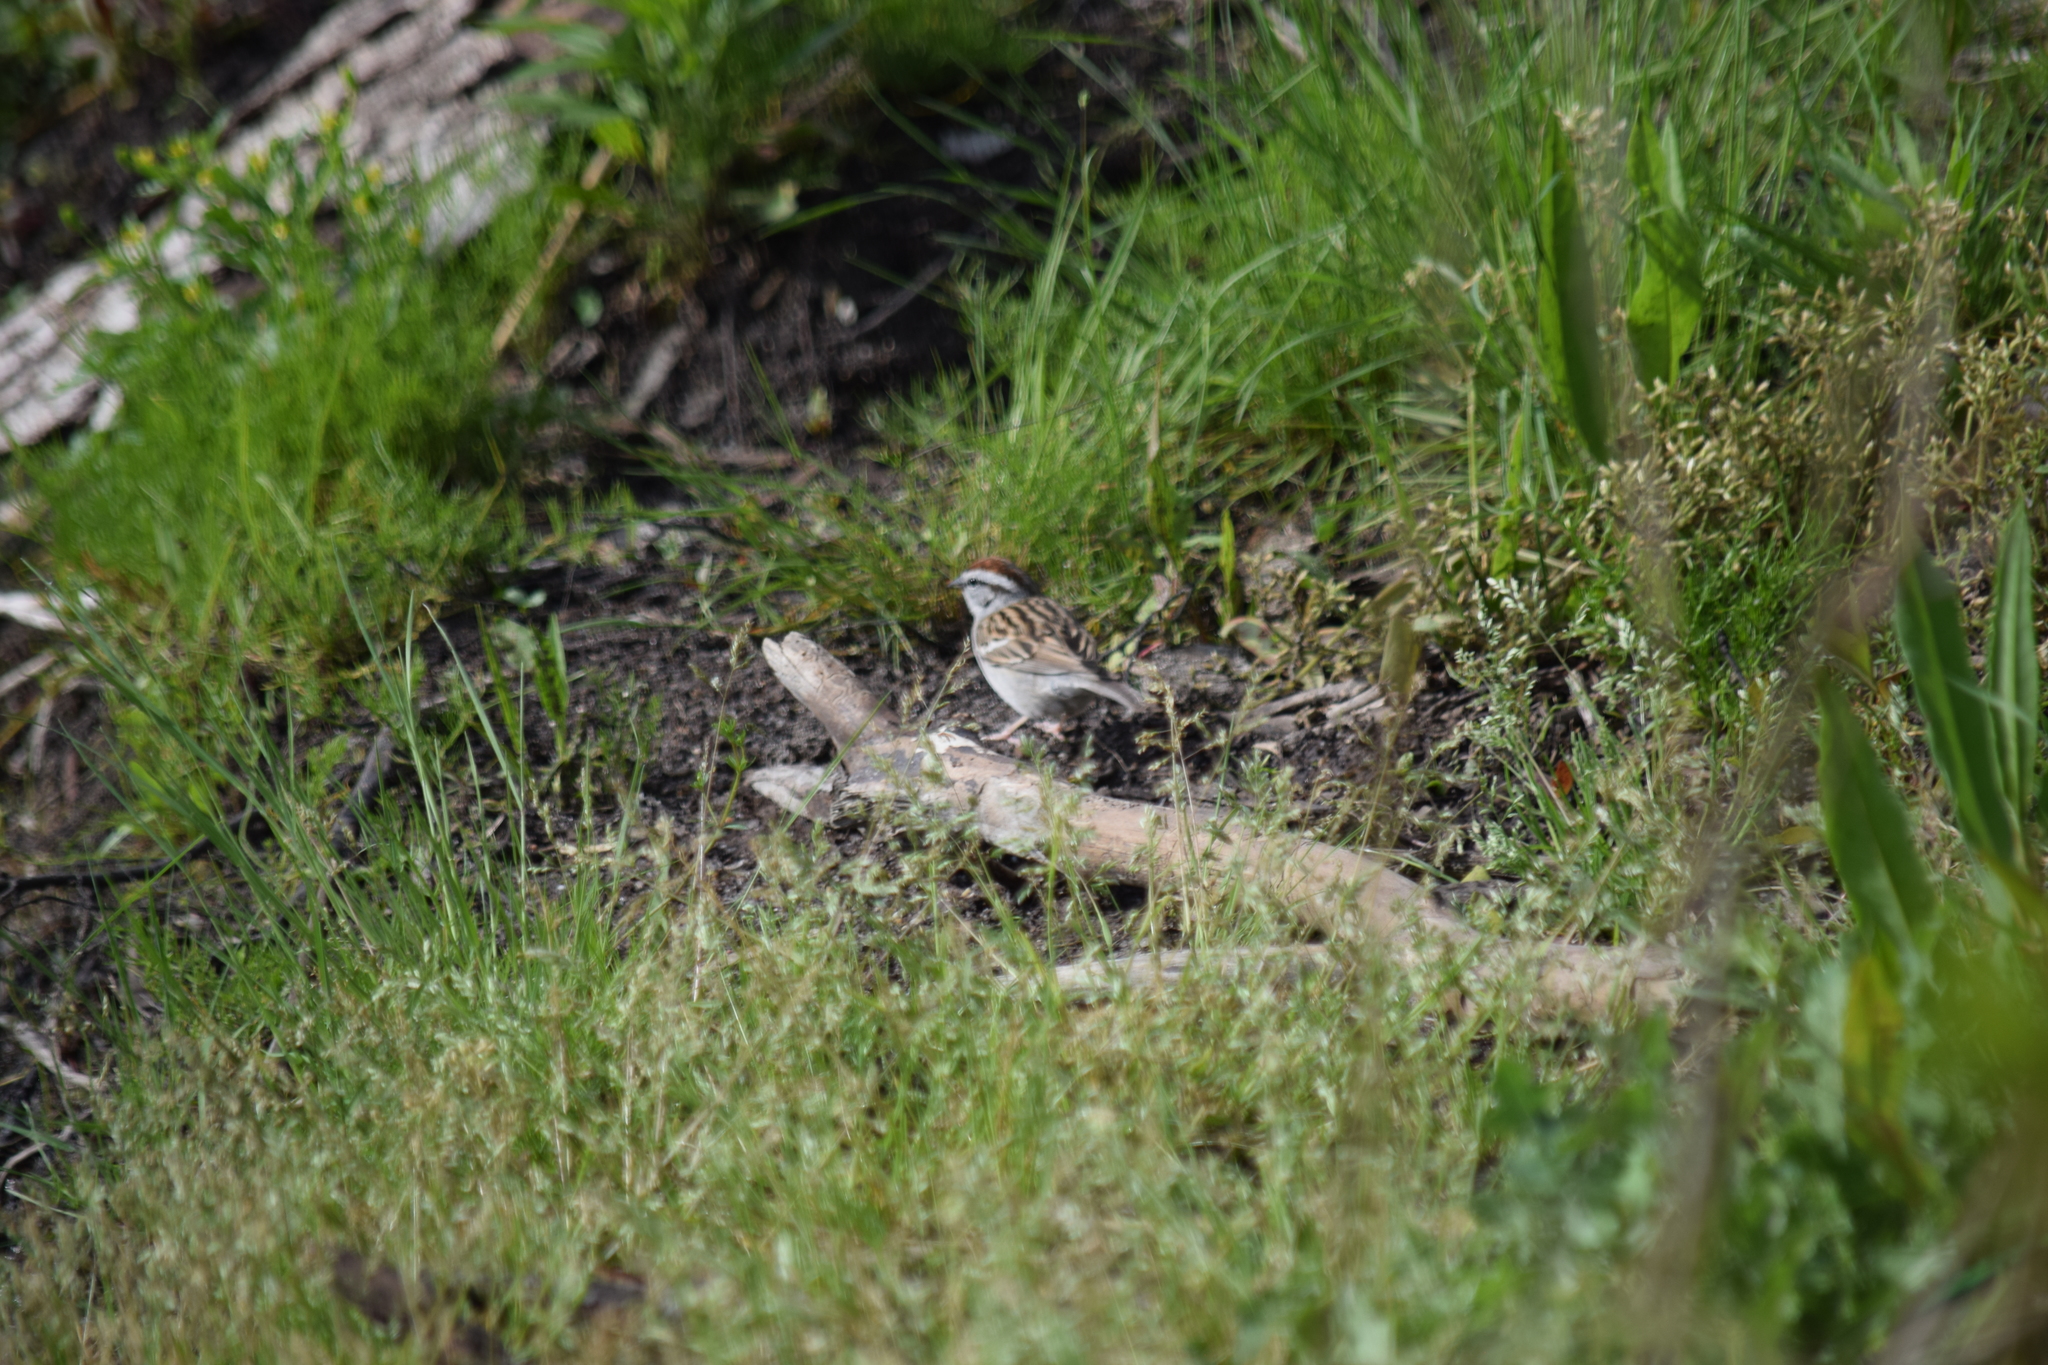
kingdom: Animalia
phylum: Chordata
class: Aves
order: Passeriformes
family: Passerellidae
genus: Spizella
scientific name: Spizella passerina
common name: Chipping sparrow
